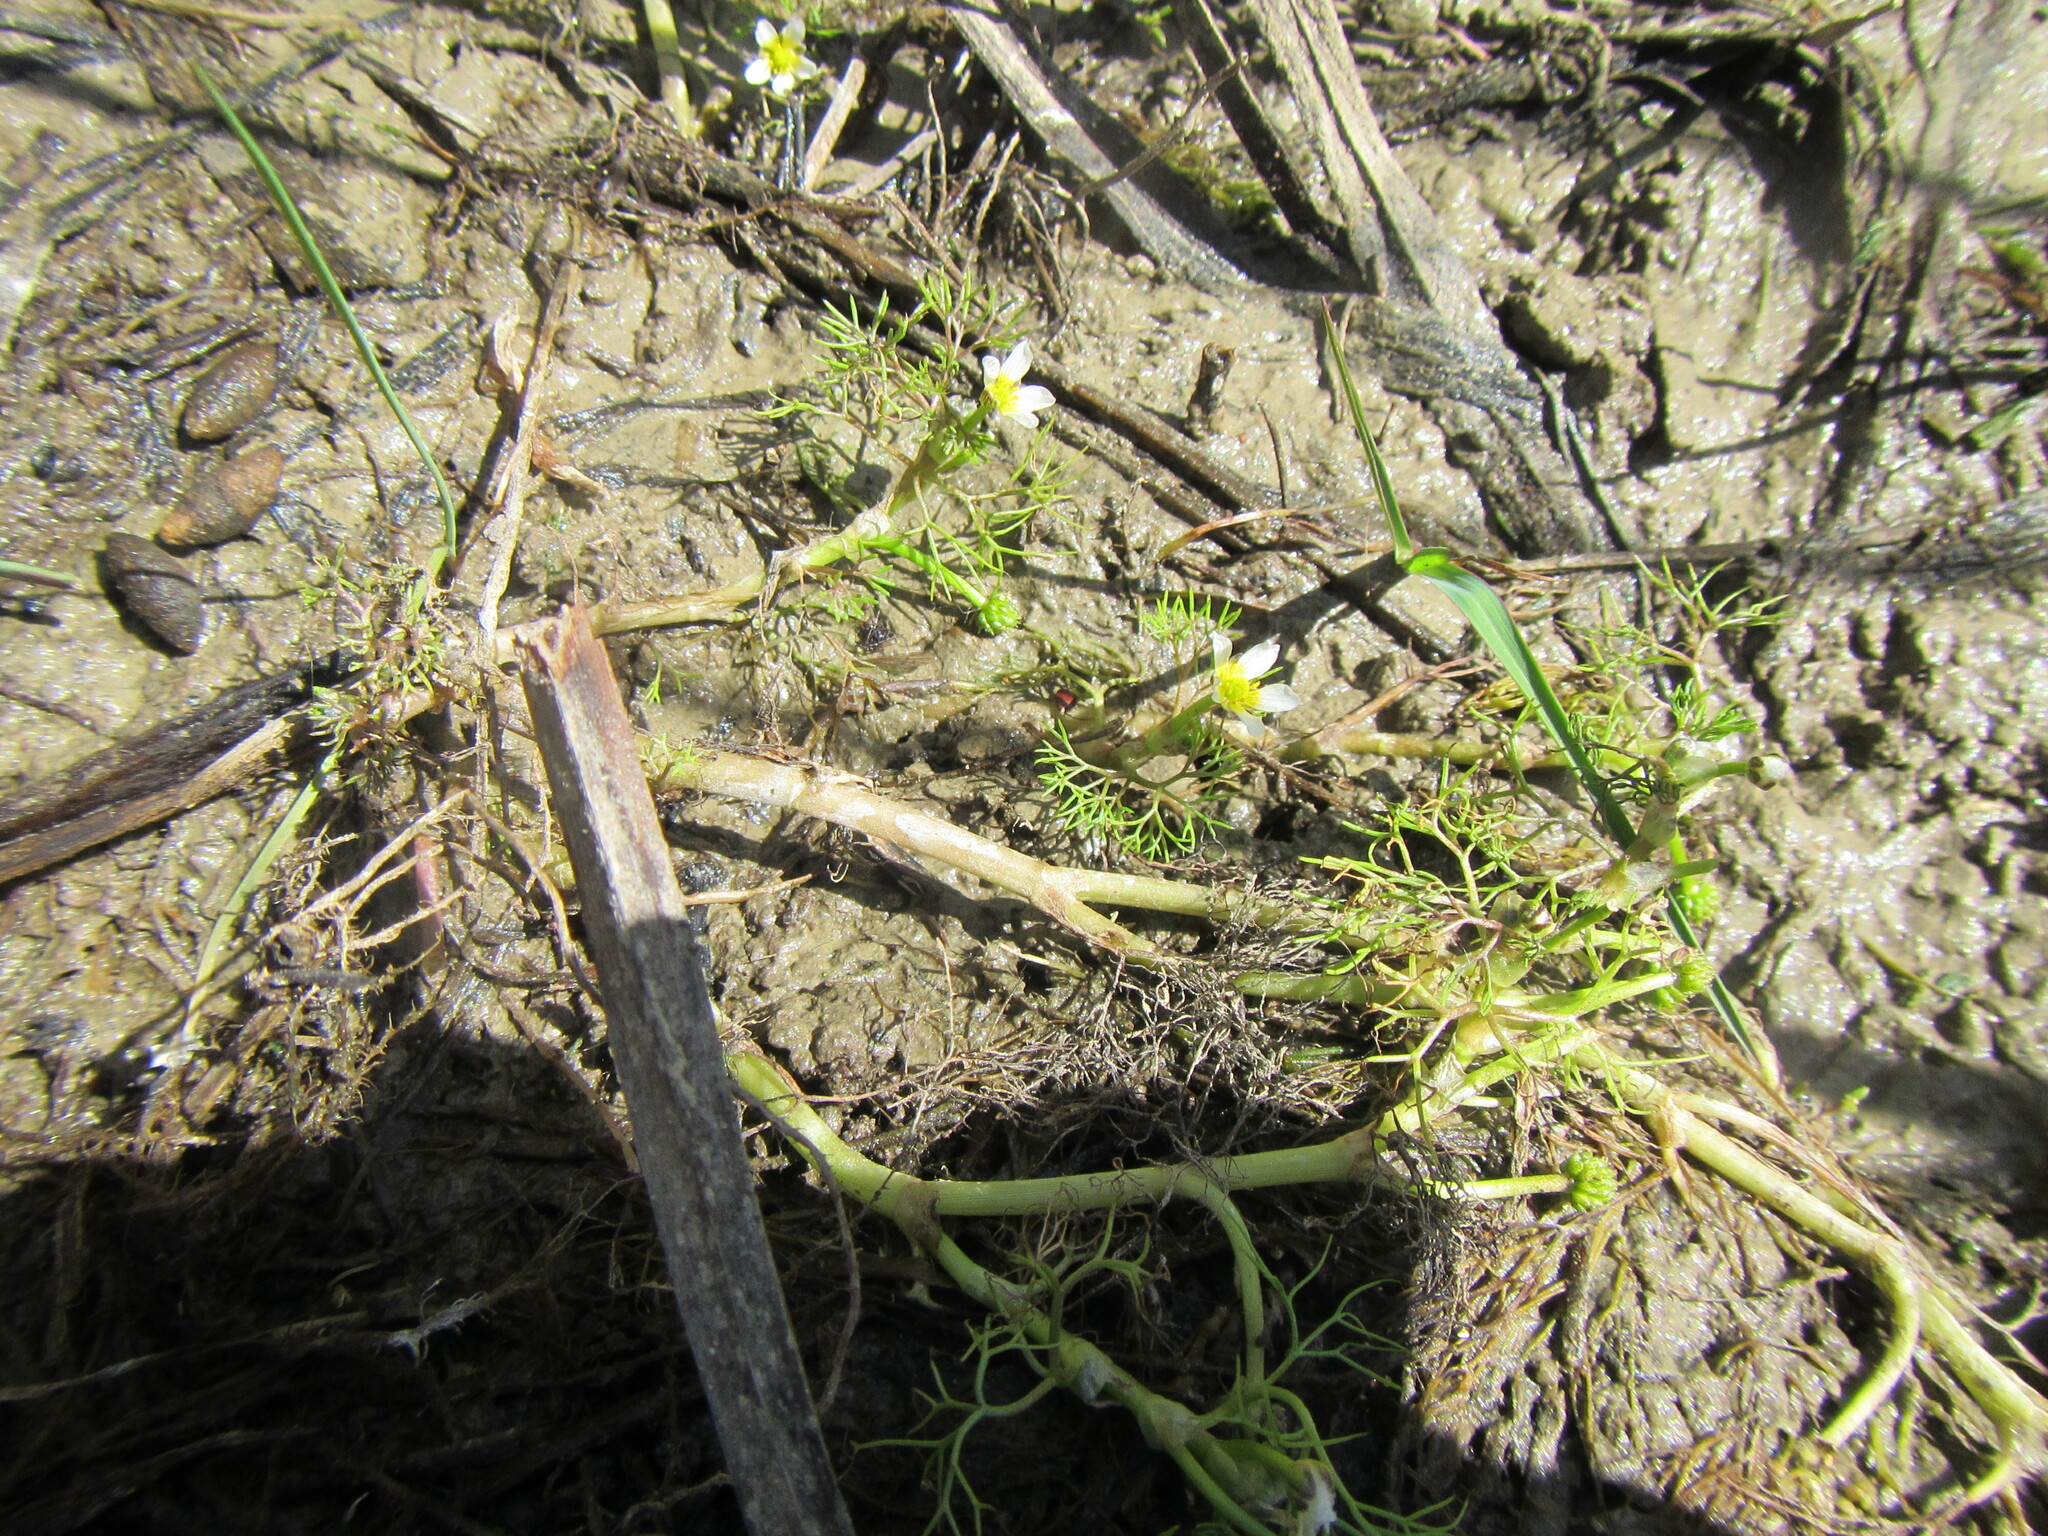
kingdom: Plantae
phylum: Tracheophyta
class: Magnoliopsida
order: Ranunculales
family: Ranunculaceae
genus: Ranunculus
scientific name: Ranunculus trichophyllus
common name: Thread-leaved water-crowfoot
